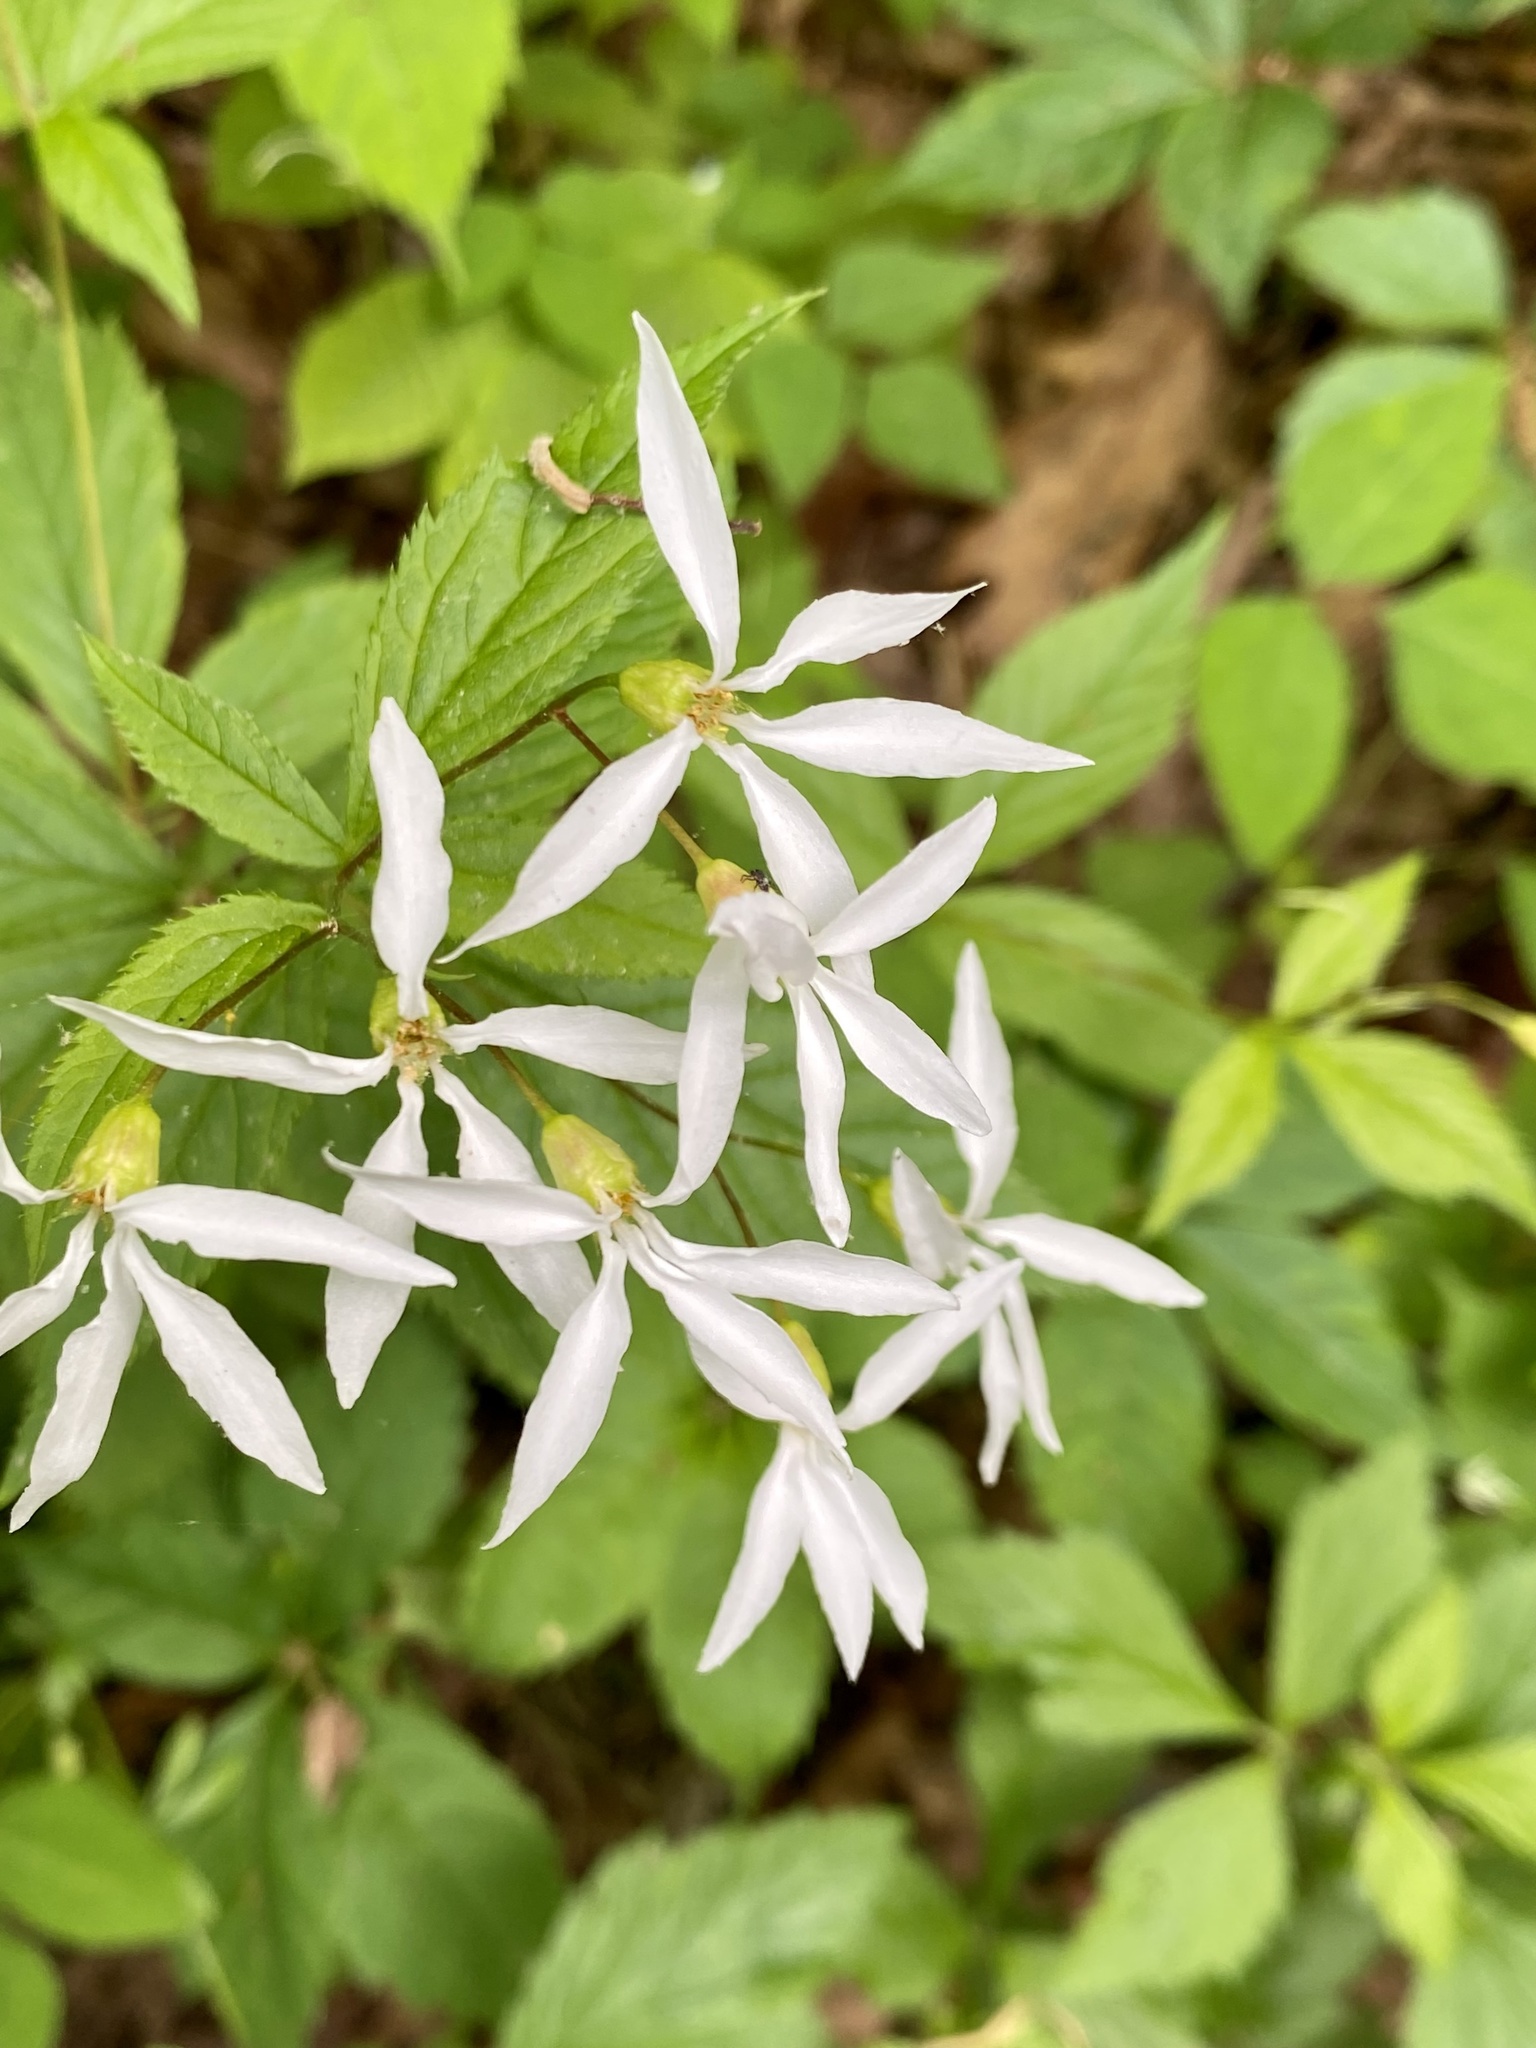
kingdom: Plantae
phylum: Tracheophyta
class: Magnoliopsida
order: Rosales
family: Rosaceae
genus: Gillenia
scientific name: Gillenia trifoliata
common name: Bowman's-root
